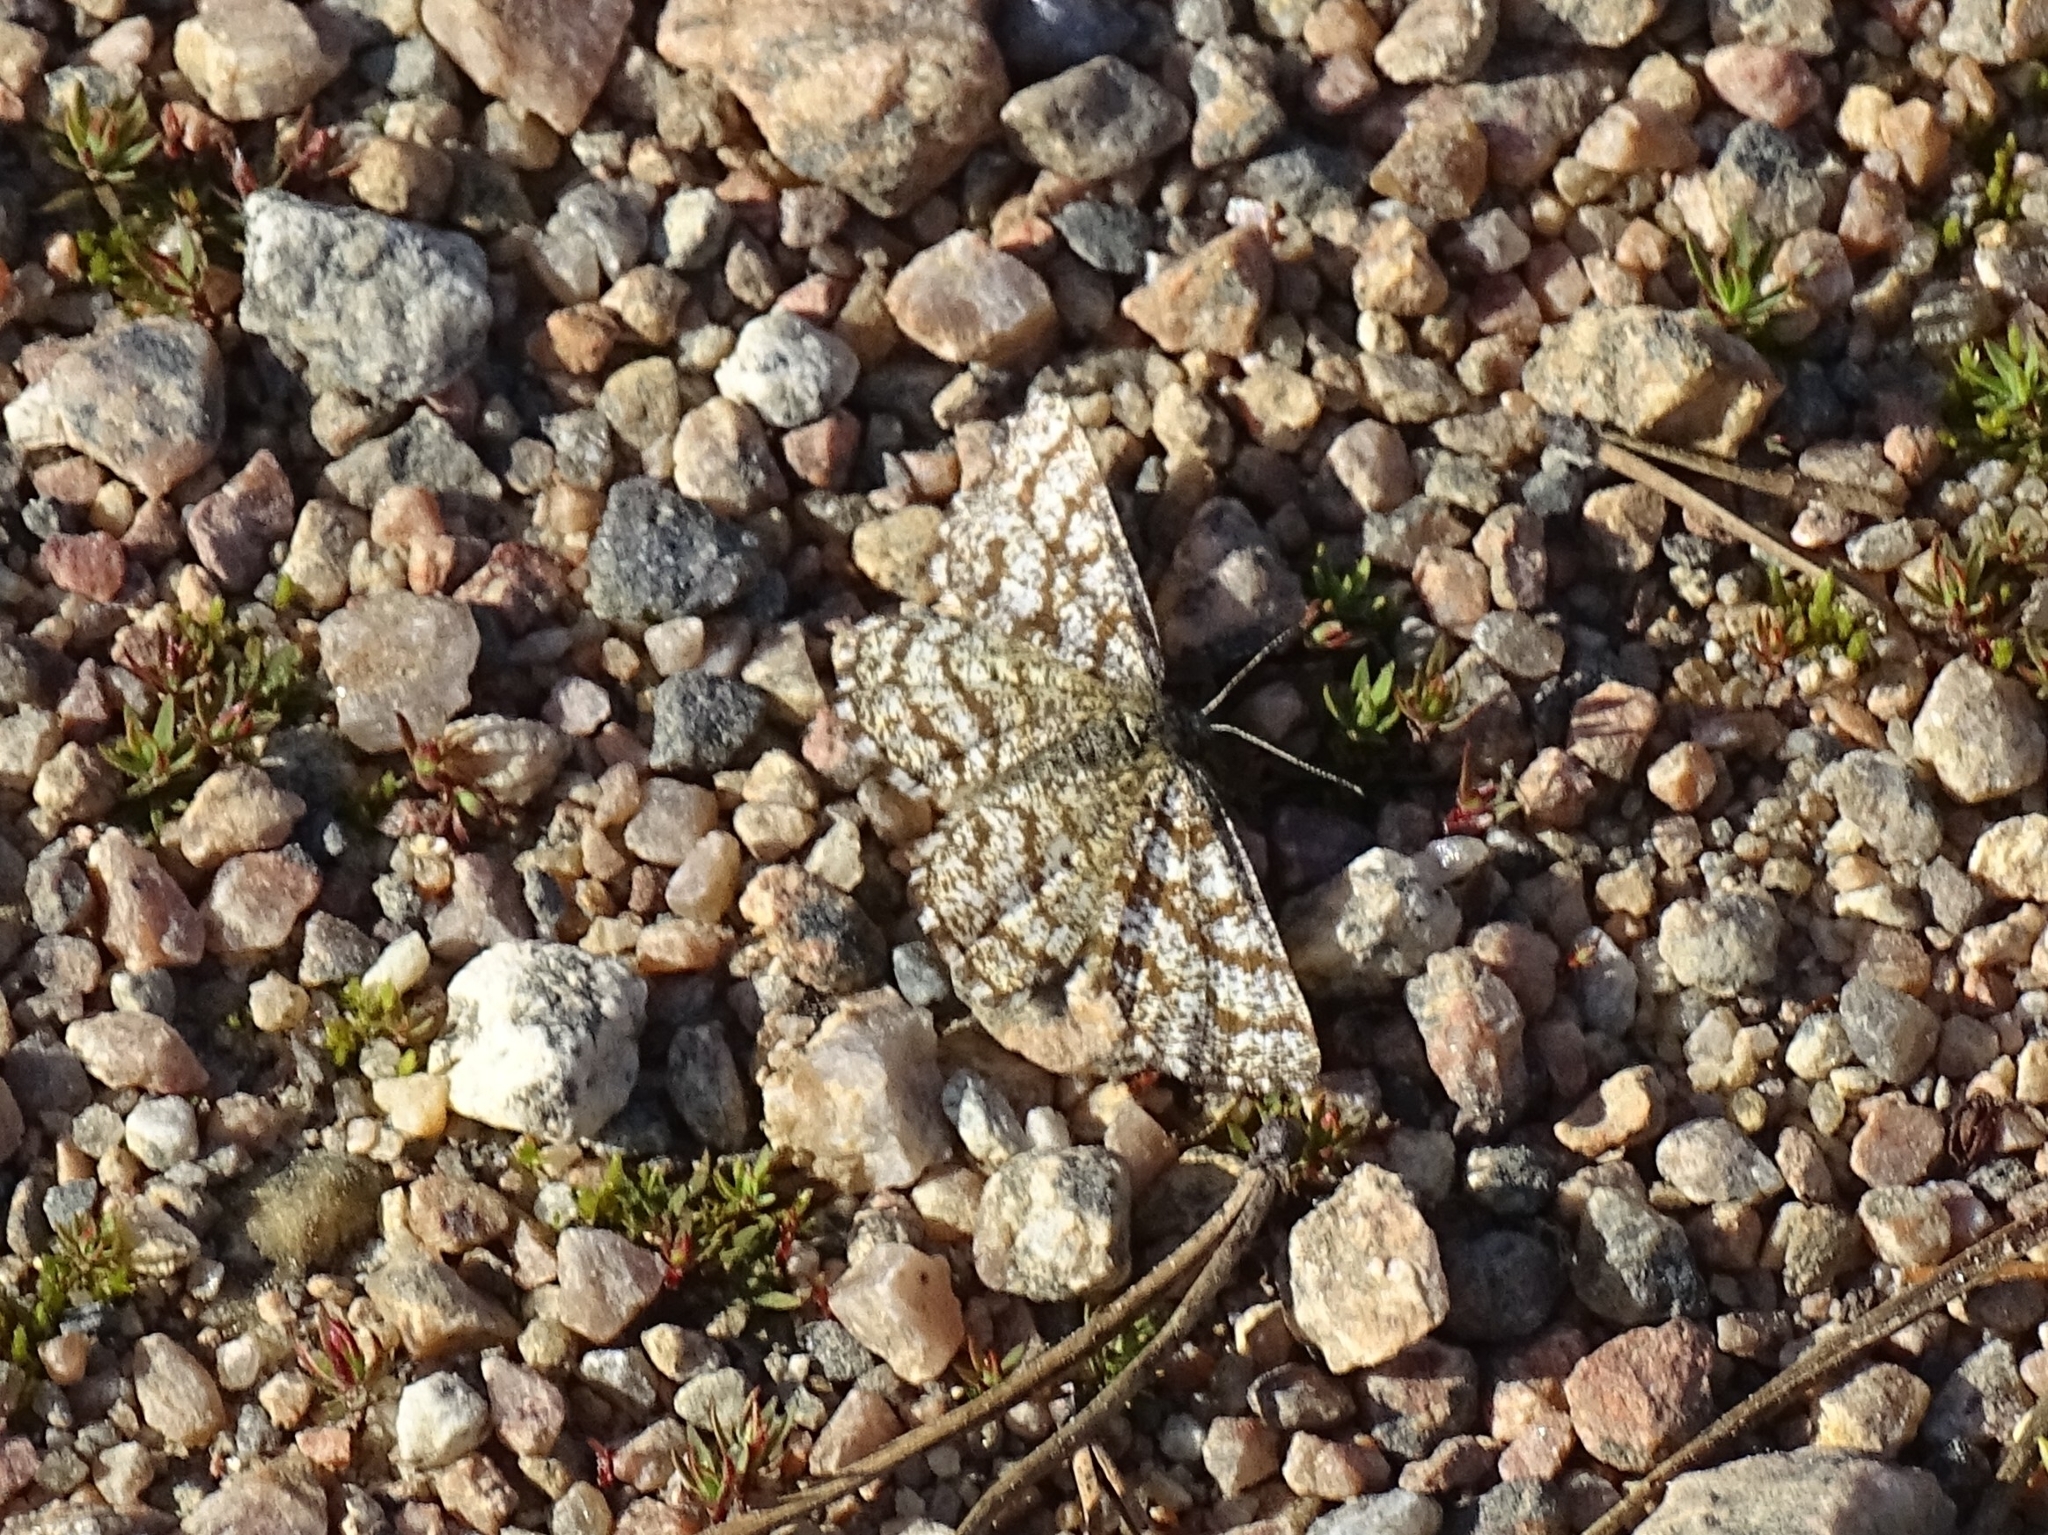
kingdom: Animalia
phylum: Arthropoda
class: Insecta
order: Lepidoptera
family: Geometridae
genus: Ematurga
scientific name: Ematurga atomaria
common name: Common heath
